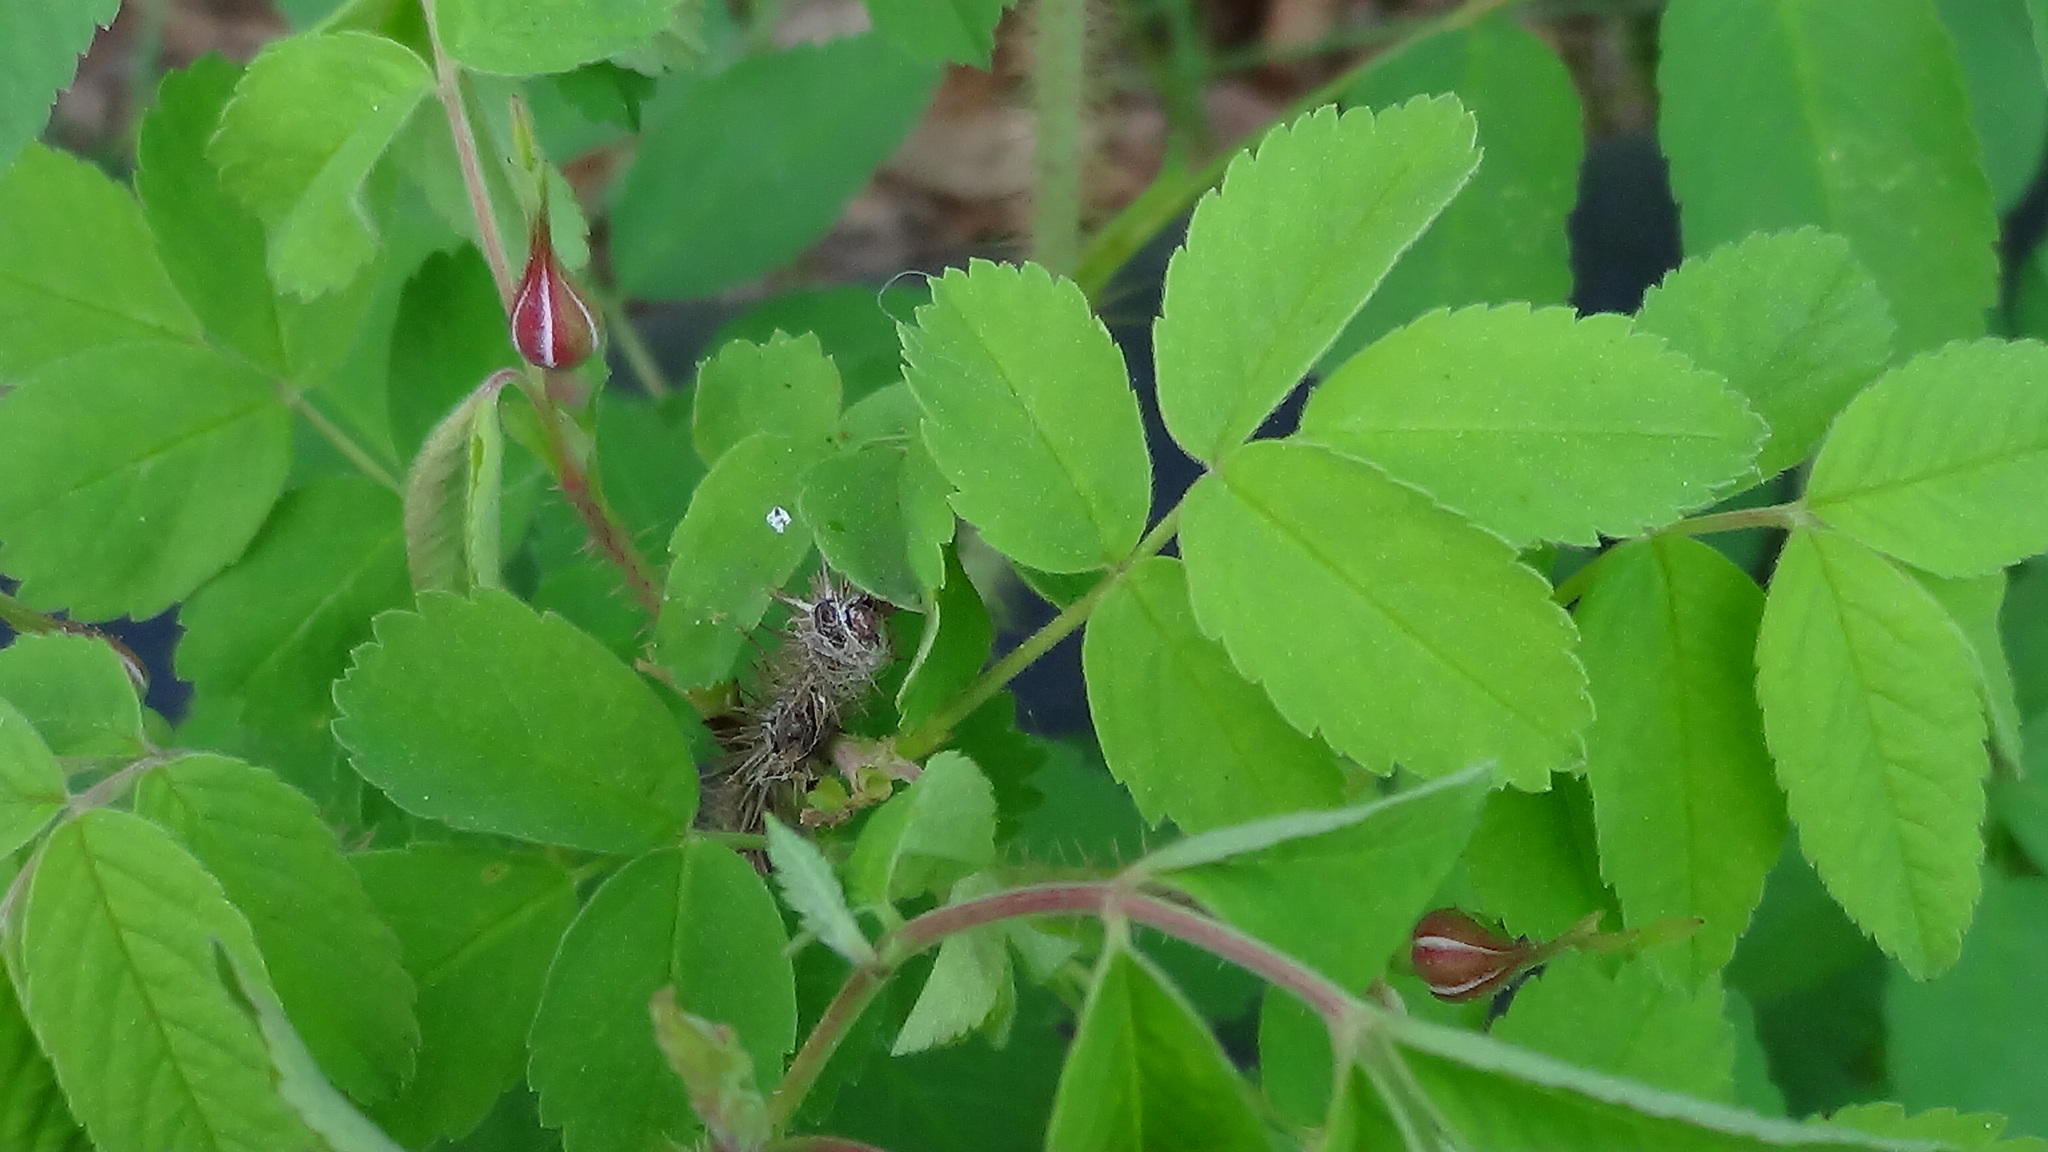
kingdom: Plantae
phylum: Tracheophyta
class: Magnoliopsida
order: Rosales
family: Rosaceae
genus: Rosa
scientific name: Rosa acicularis
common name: Prickly rose
